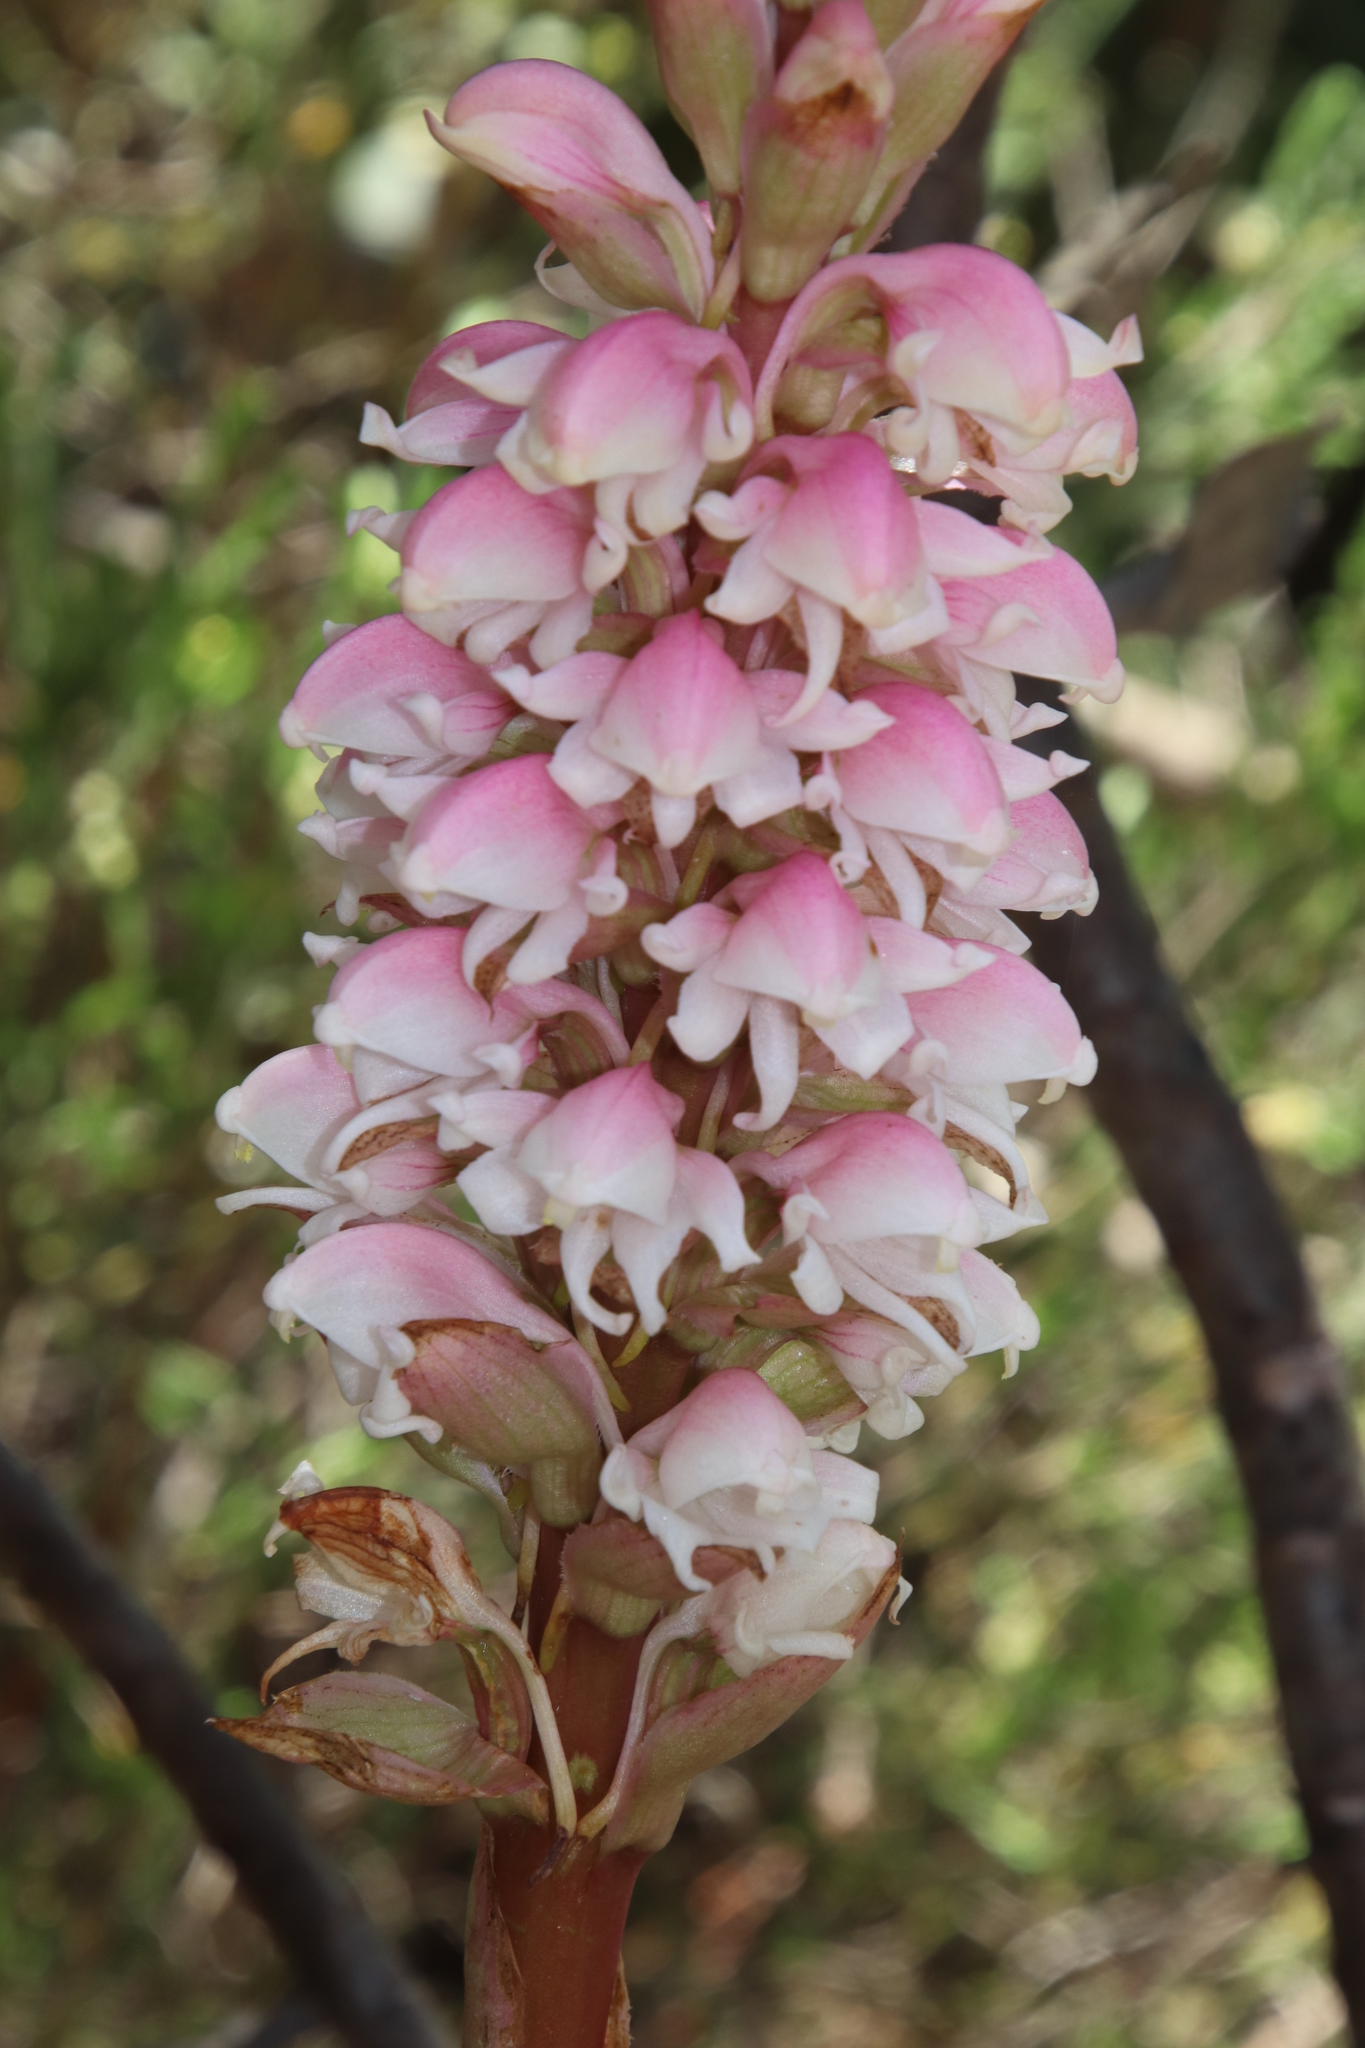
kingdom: Plantae
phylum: Tracheophyta
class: Liliopsida
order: Asparagales
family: Orchidaceae
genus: Satyrium
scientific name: Satyrium carneum
